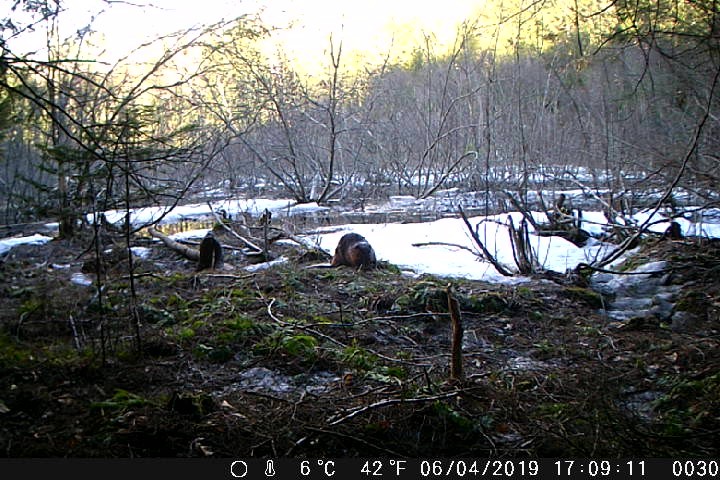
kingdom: Animalia
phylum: Chordata
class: Mammalia
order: Rodentia
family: Castoridae
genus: Castor
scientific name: Castor canadensis
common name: American beaver
